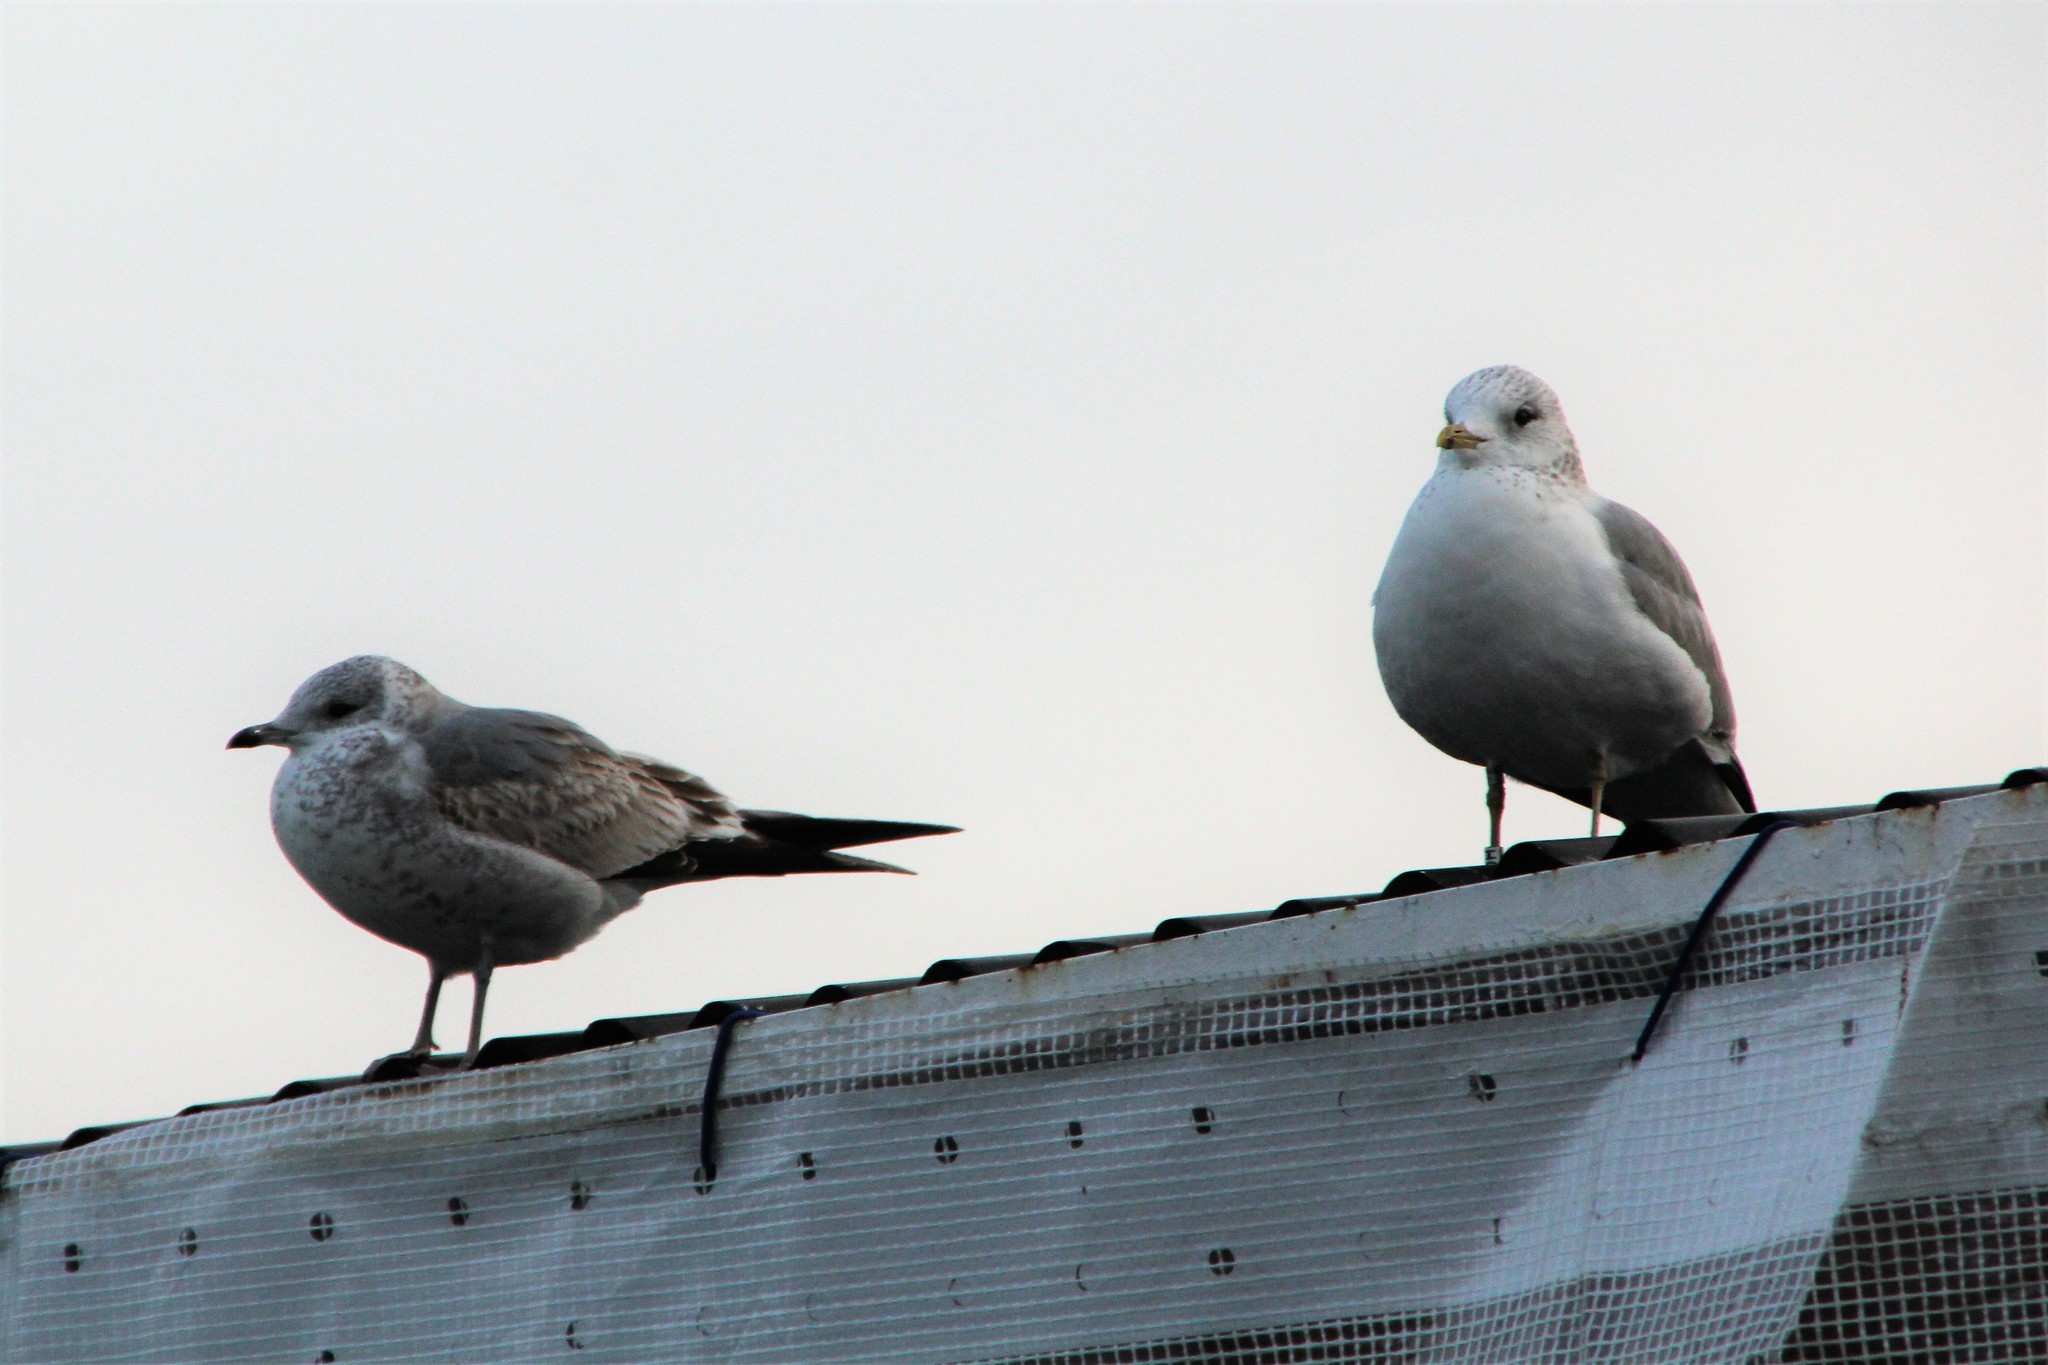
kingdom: Animalia
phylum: Chordata
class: Aves
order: Charadriiformes
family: Laridae
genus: Larus
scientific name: Larus canus
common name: Mew gull
